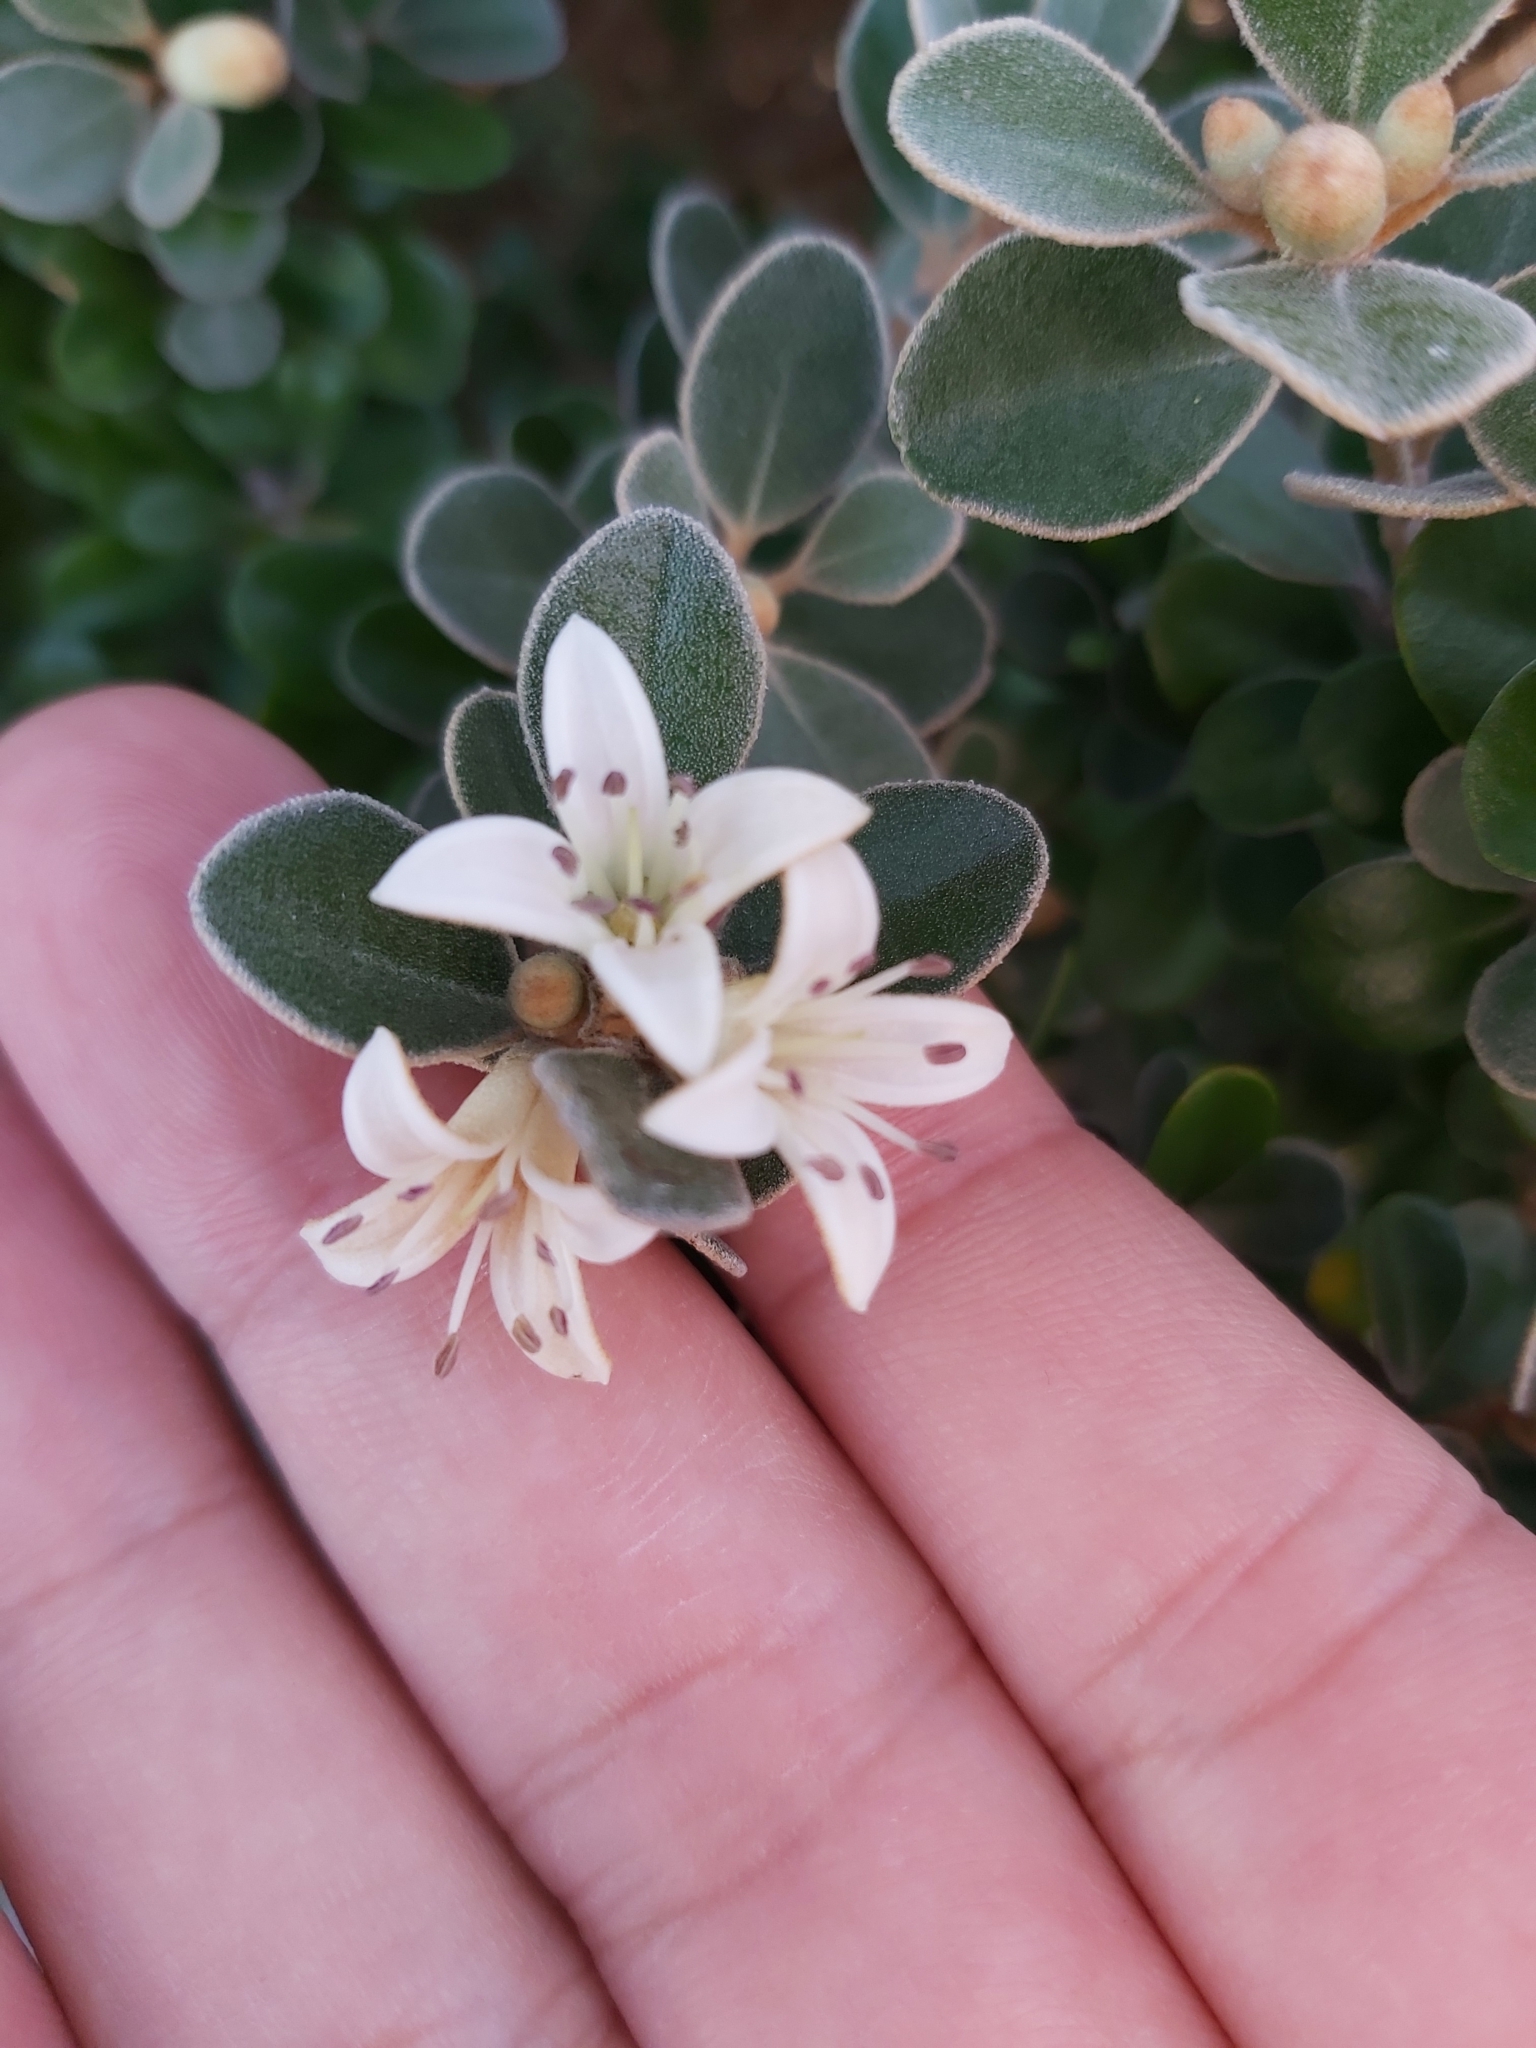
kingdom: Plantae
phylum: Tracheophyta
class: Magnoliopsida
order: Sapindales
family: Rutaceae
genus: Correa
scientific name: Correa alba
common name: White correa
